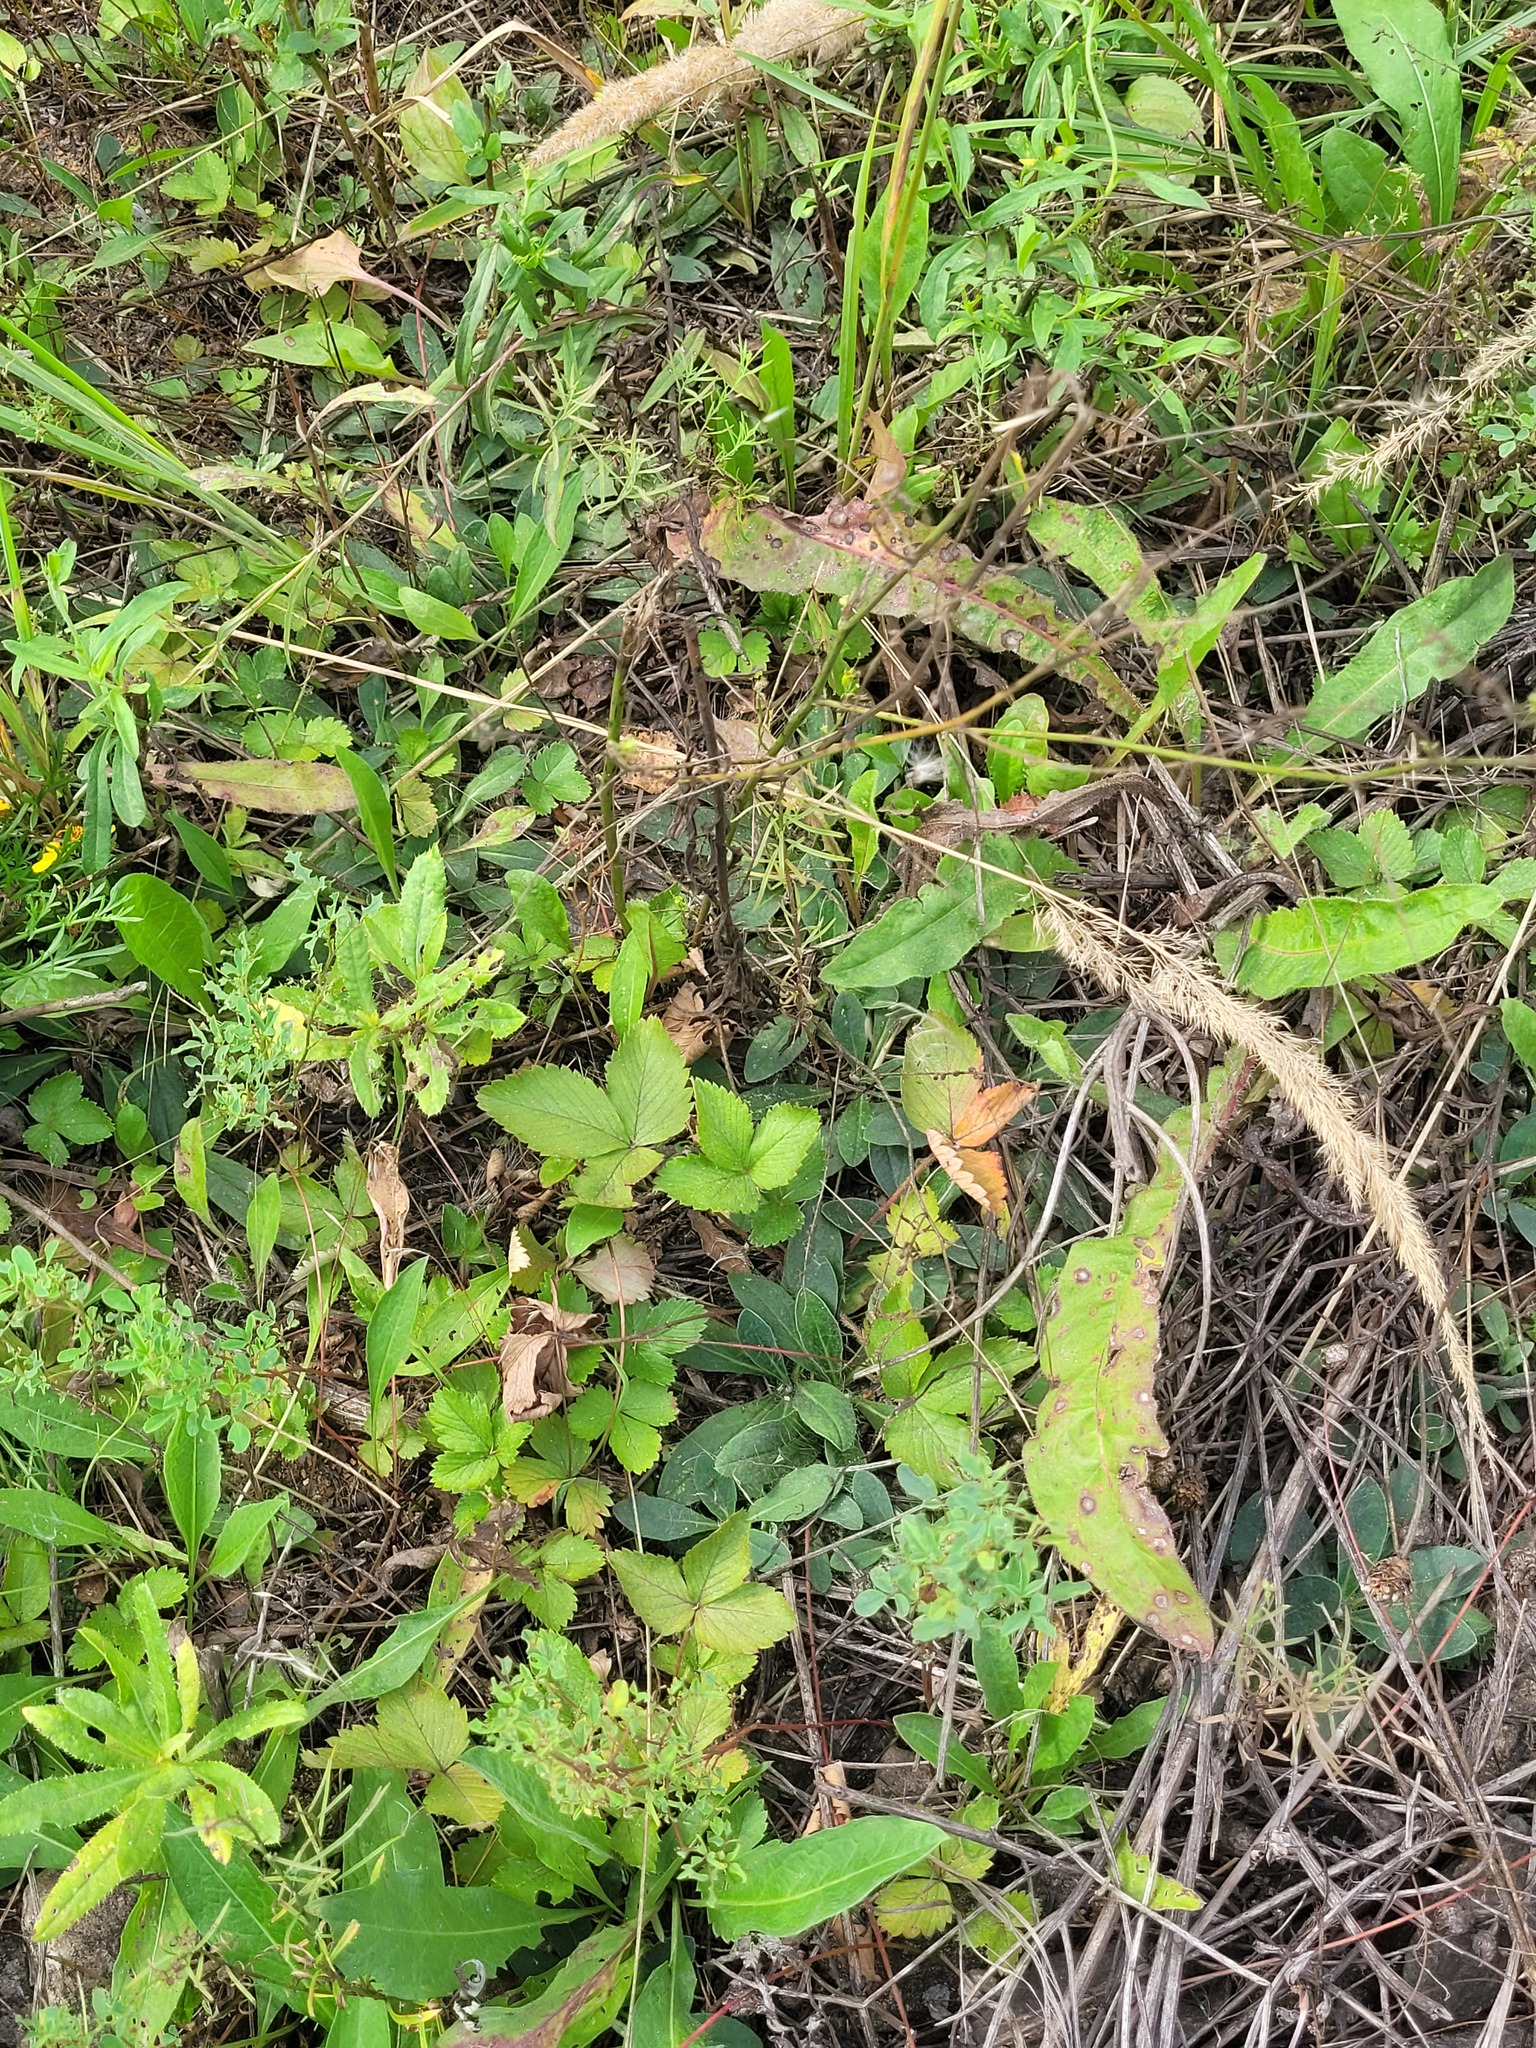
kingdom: Plantae
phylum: Tracheophyta
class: Magnoliopsida
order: Rosales
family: Rosaceae
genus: Fragaria
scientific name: Fragaria vesca
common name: Wild strawberry
